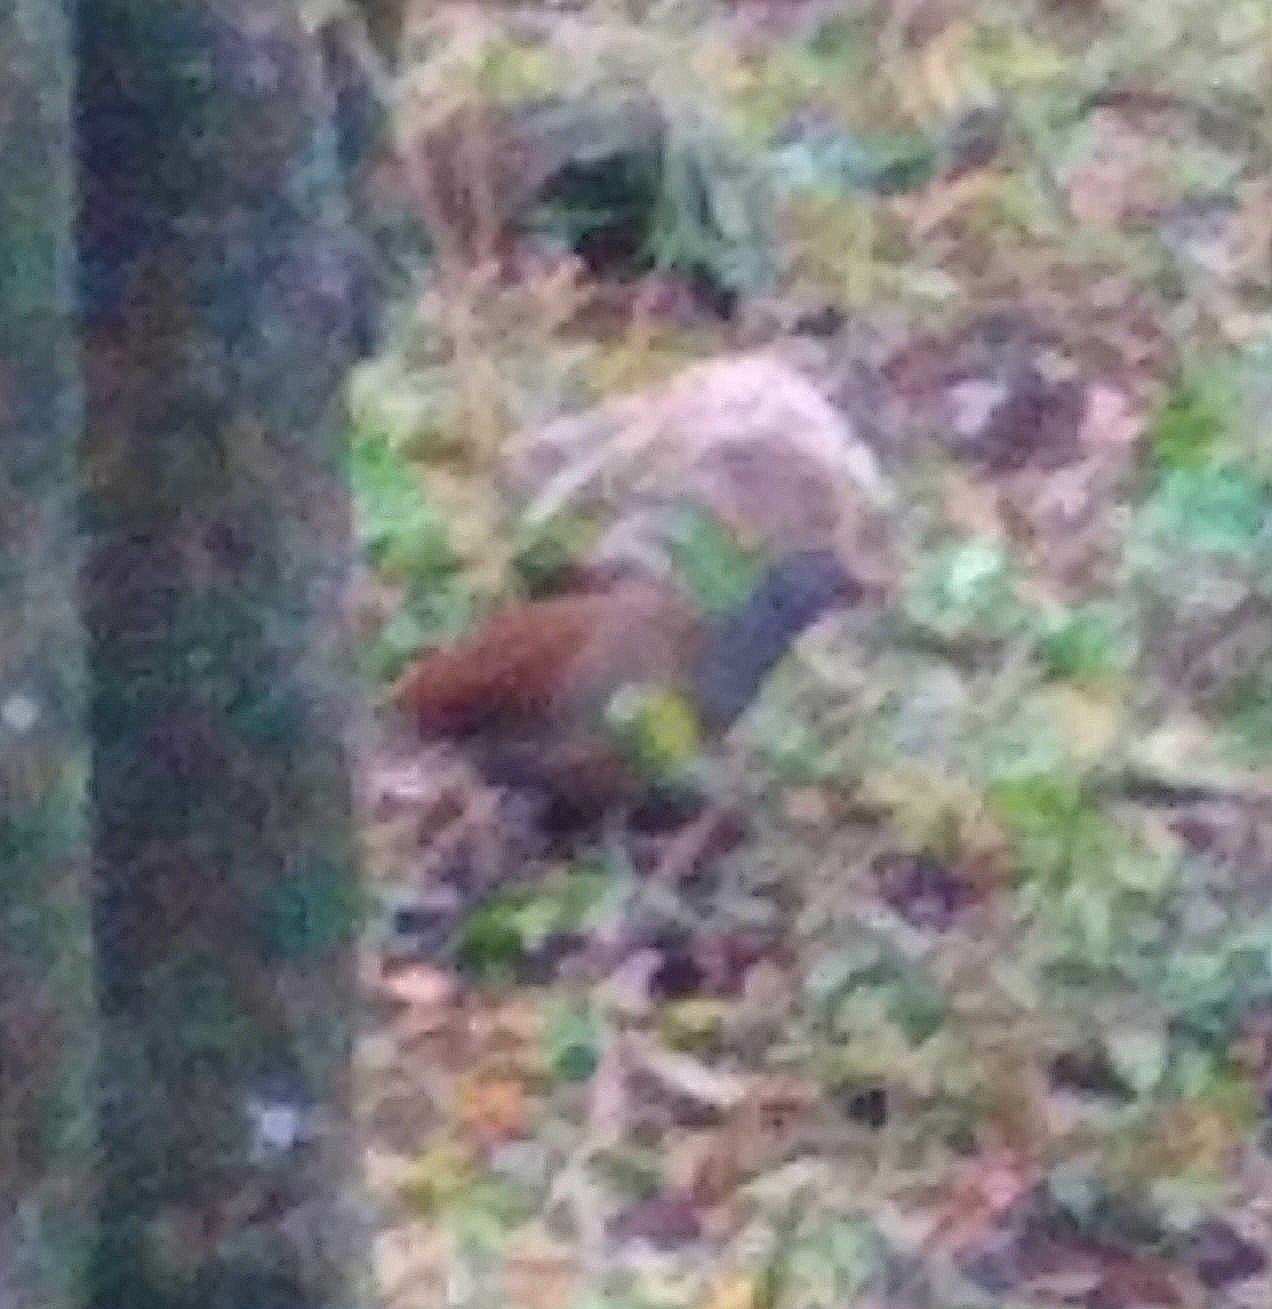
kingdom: Animalia
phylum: Chordata
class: Aves
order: Tinamiformes
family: Tinamidae
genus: Crypturellus
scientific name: Crypturellus tataupa
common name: Tataupa tinamou
